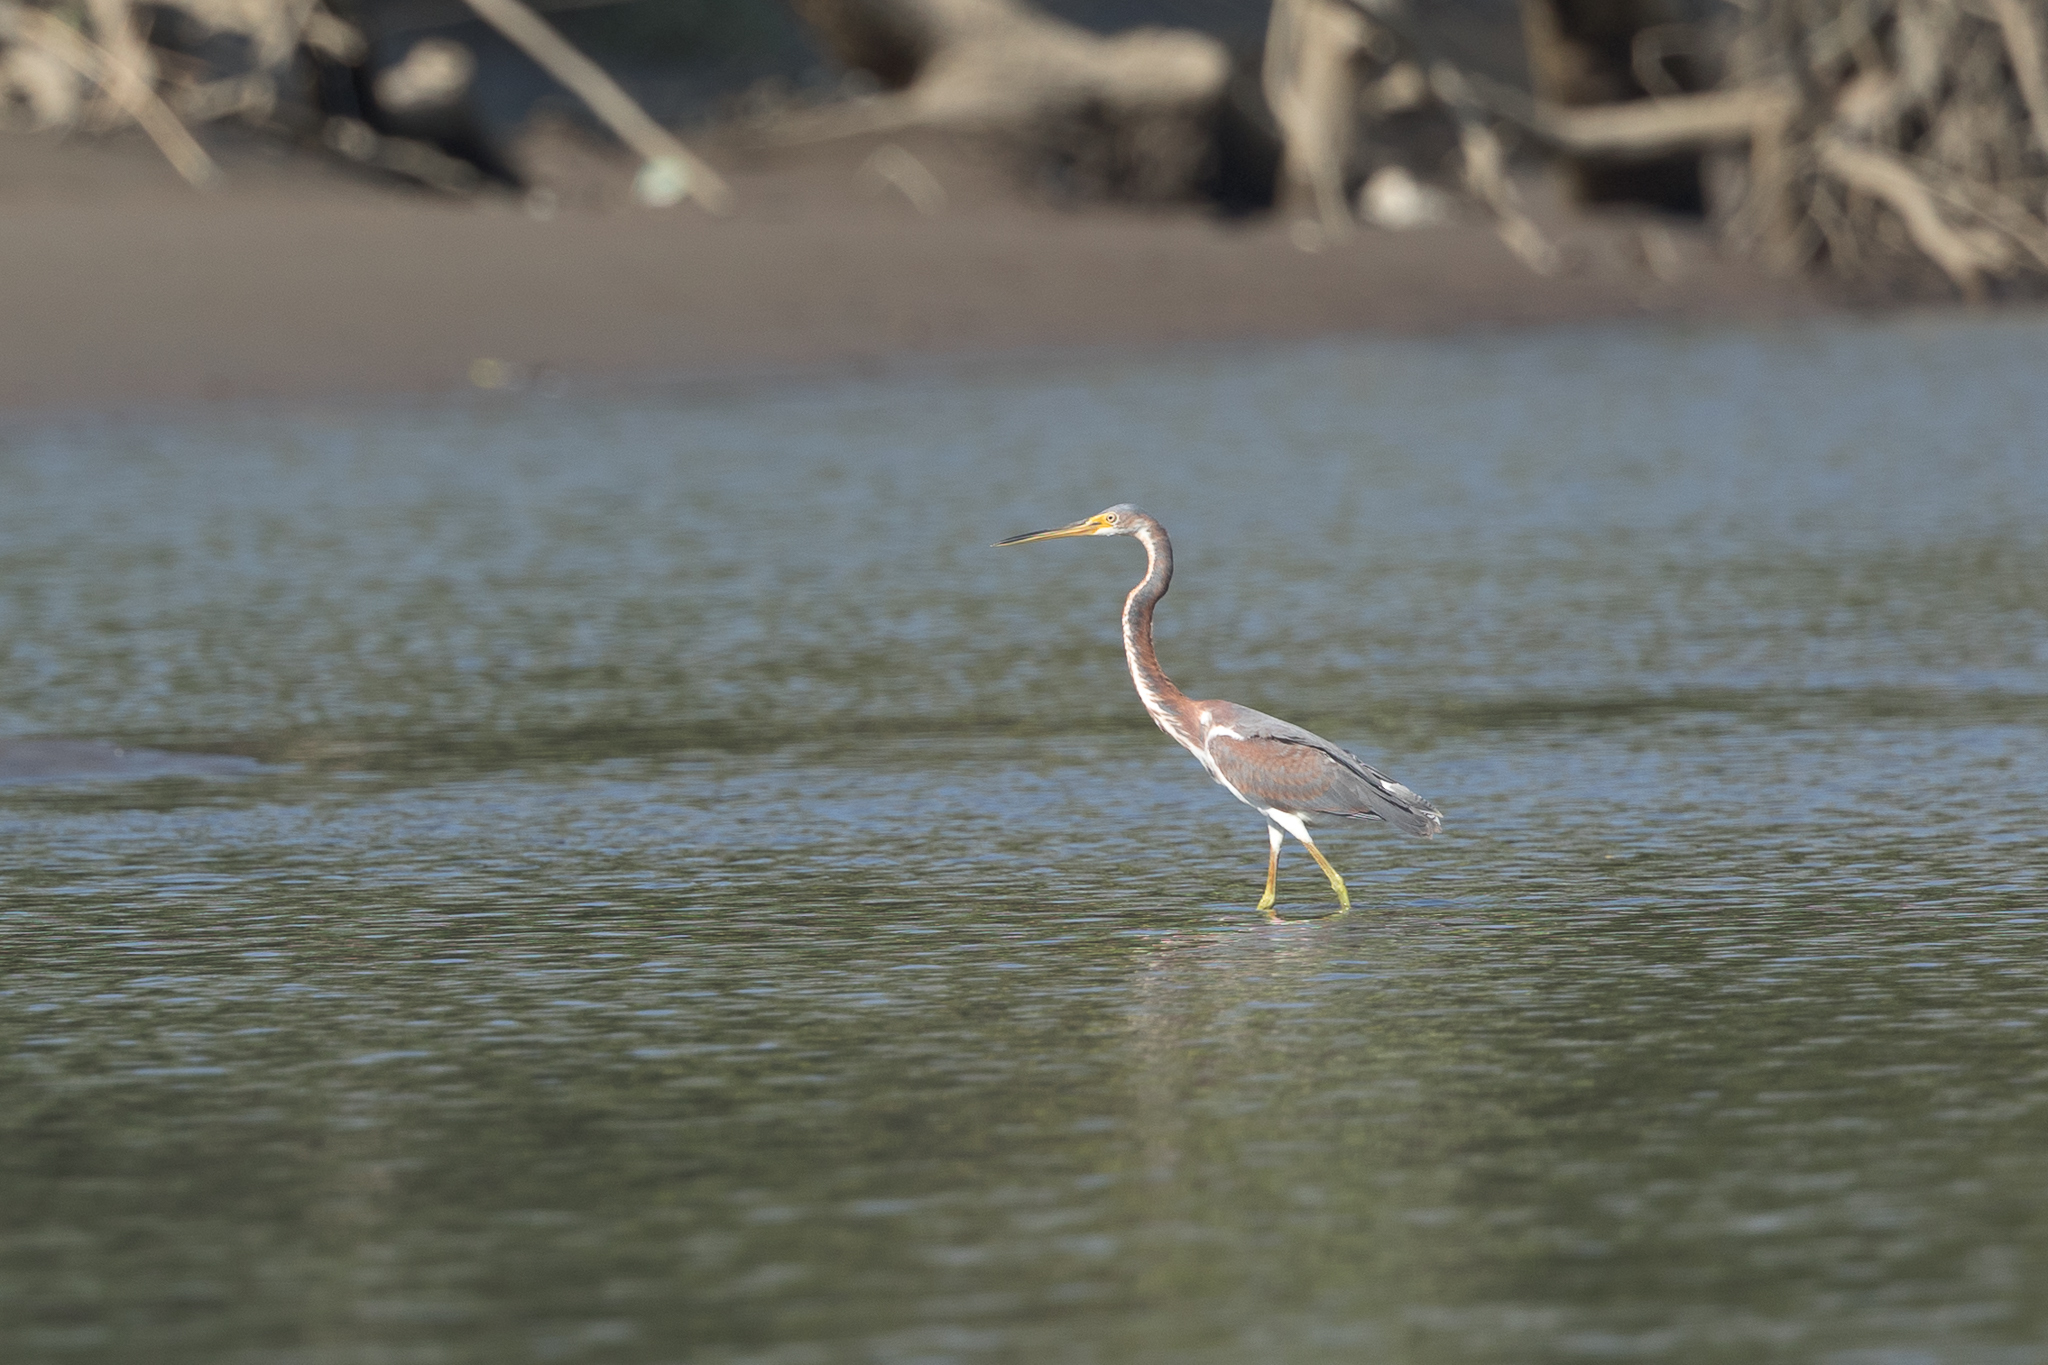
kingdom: Animalia
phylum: Chordata
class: Aves
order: Pelecaniformes
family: Ardeidae
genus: Egretta
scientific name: Egretta tricolor
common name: Tricolored heron
